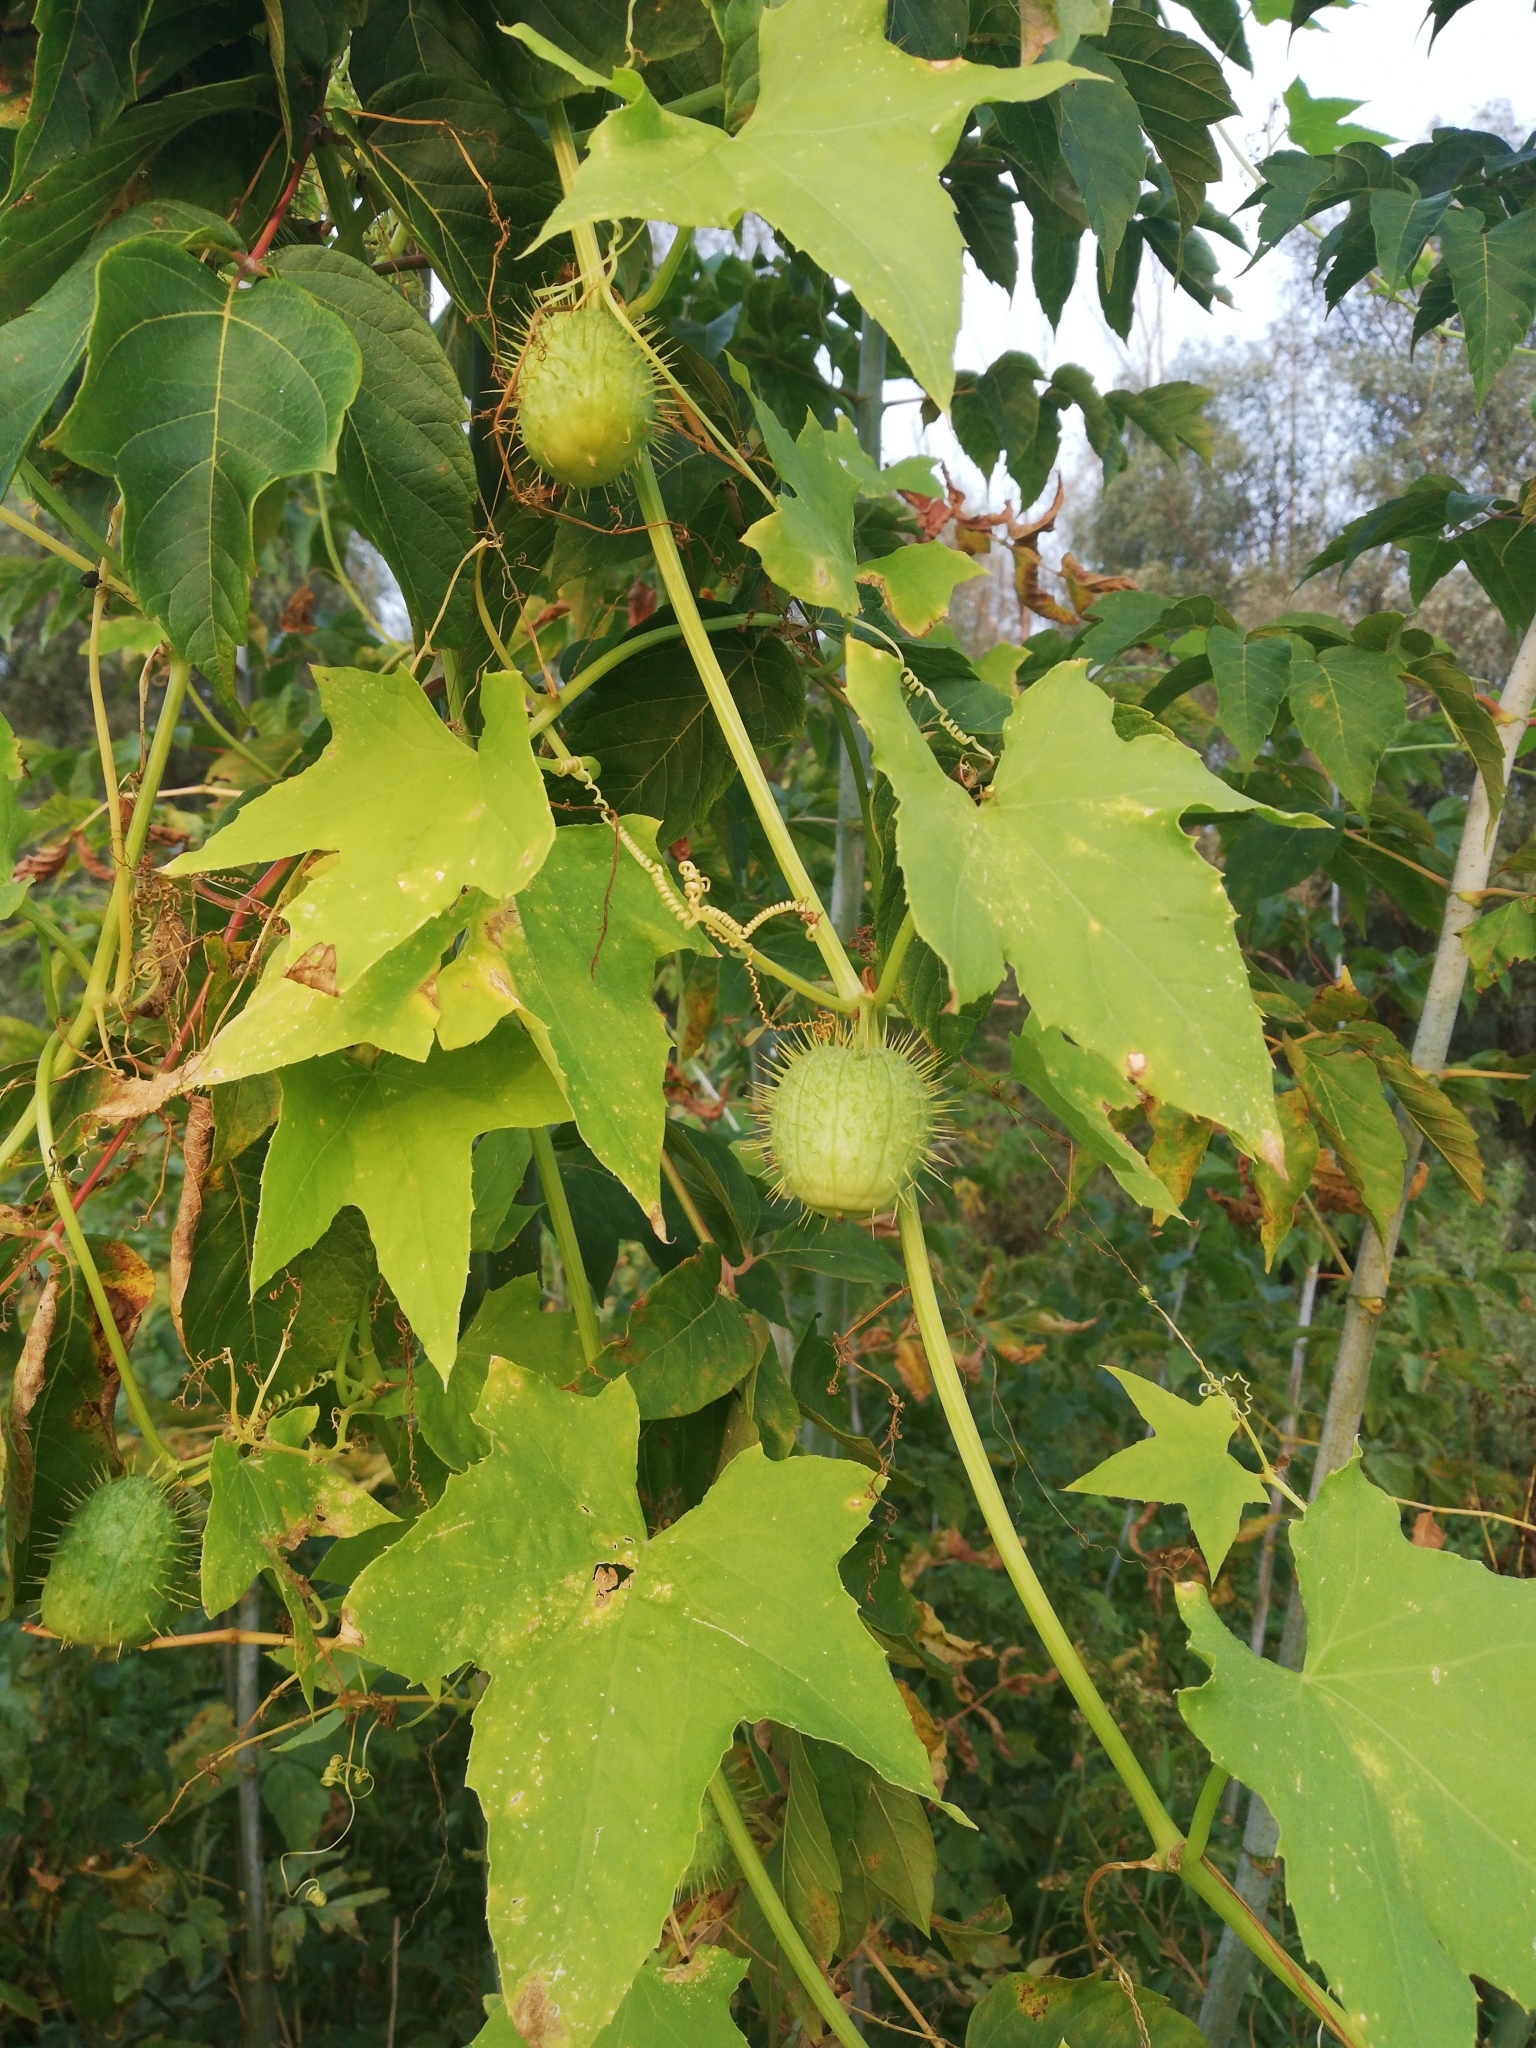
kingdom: Plantae
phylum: Tracheophyta
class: Magnoliopsida
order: Cucurbitales
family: Cucurbitaceae
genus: Echinocystis
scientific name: Echinocystis lobata
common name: Wild cucumber
